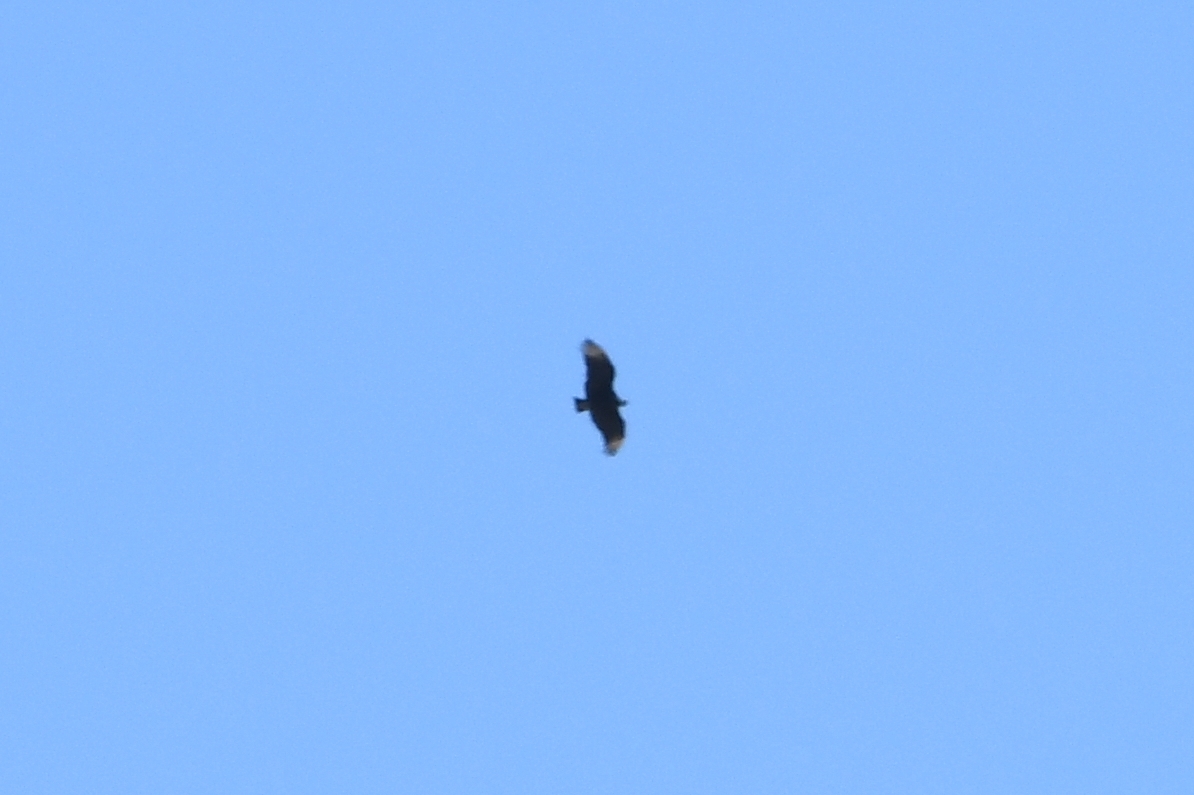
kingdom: Animalia
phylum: Chordata
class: Aves
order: Accipitriformes
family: Cathartidae
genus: Coragyps
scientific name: Coragyps atratus
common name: Black vulture
